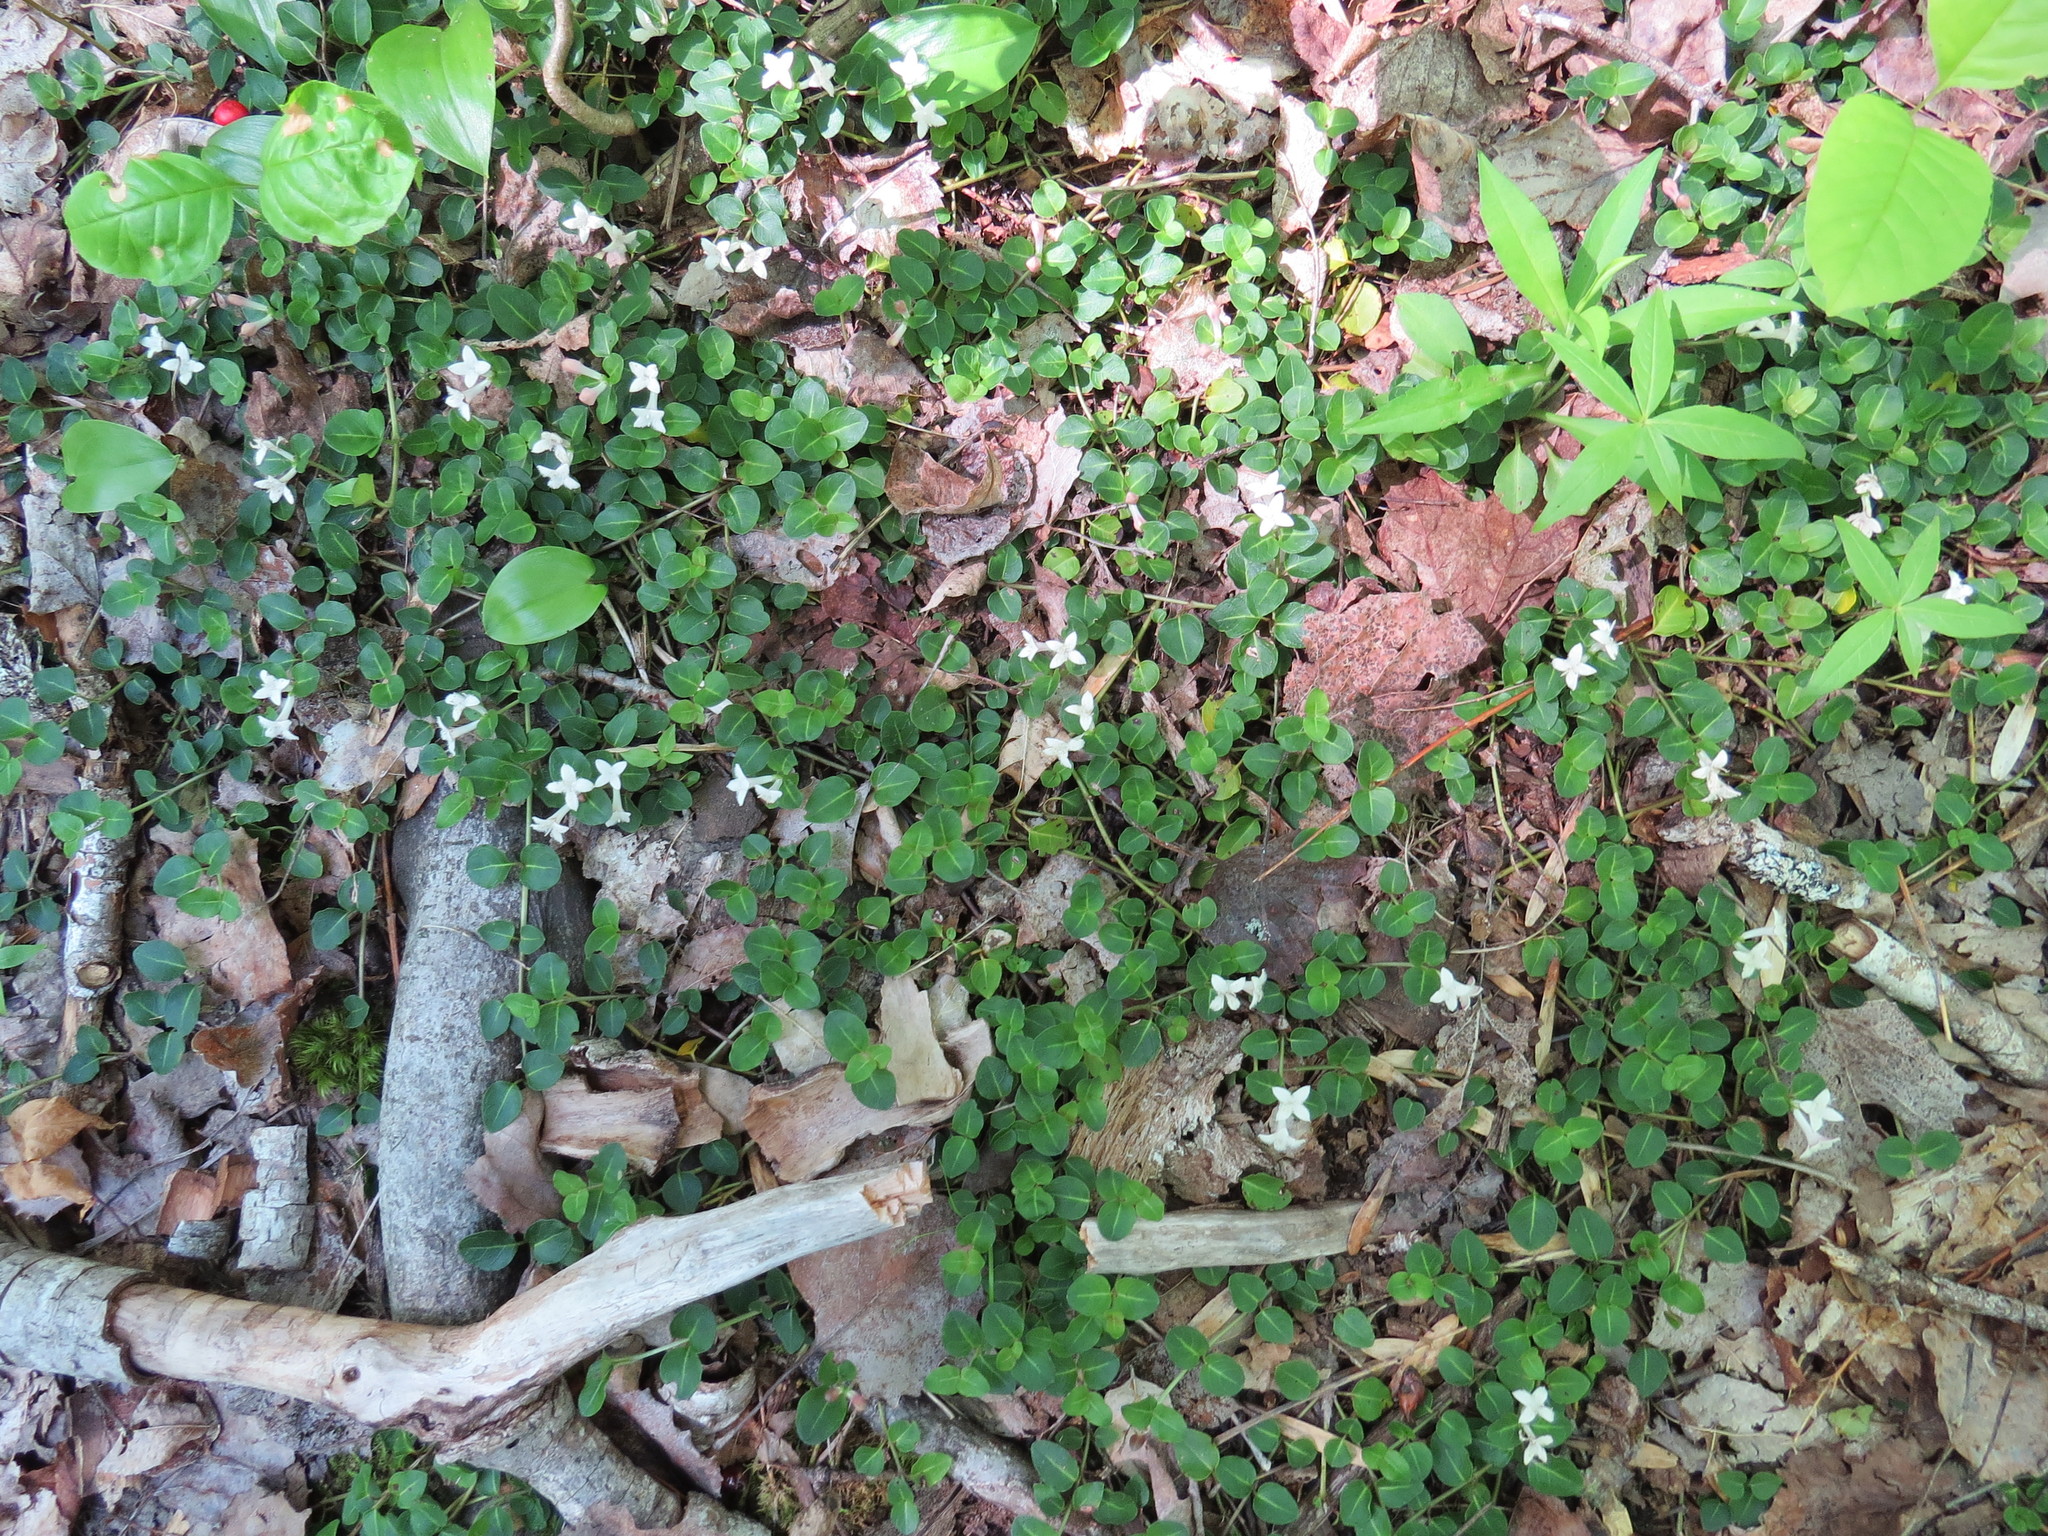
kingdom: Plantae
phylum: Tracheophyta
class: Magnoliopsida
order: Gentianales
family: Rubiaceae
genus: Mitchella
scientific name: Mitchella repens
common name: Partridge-berry
